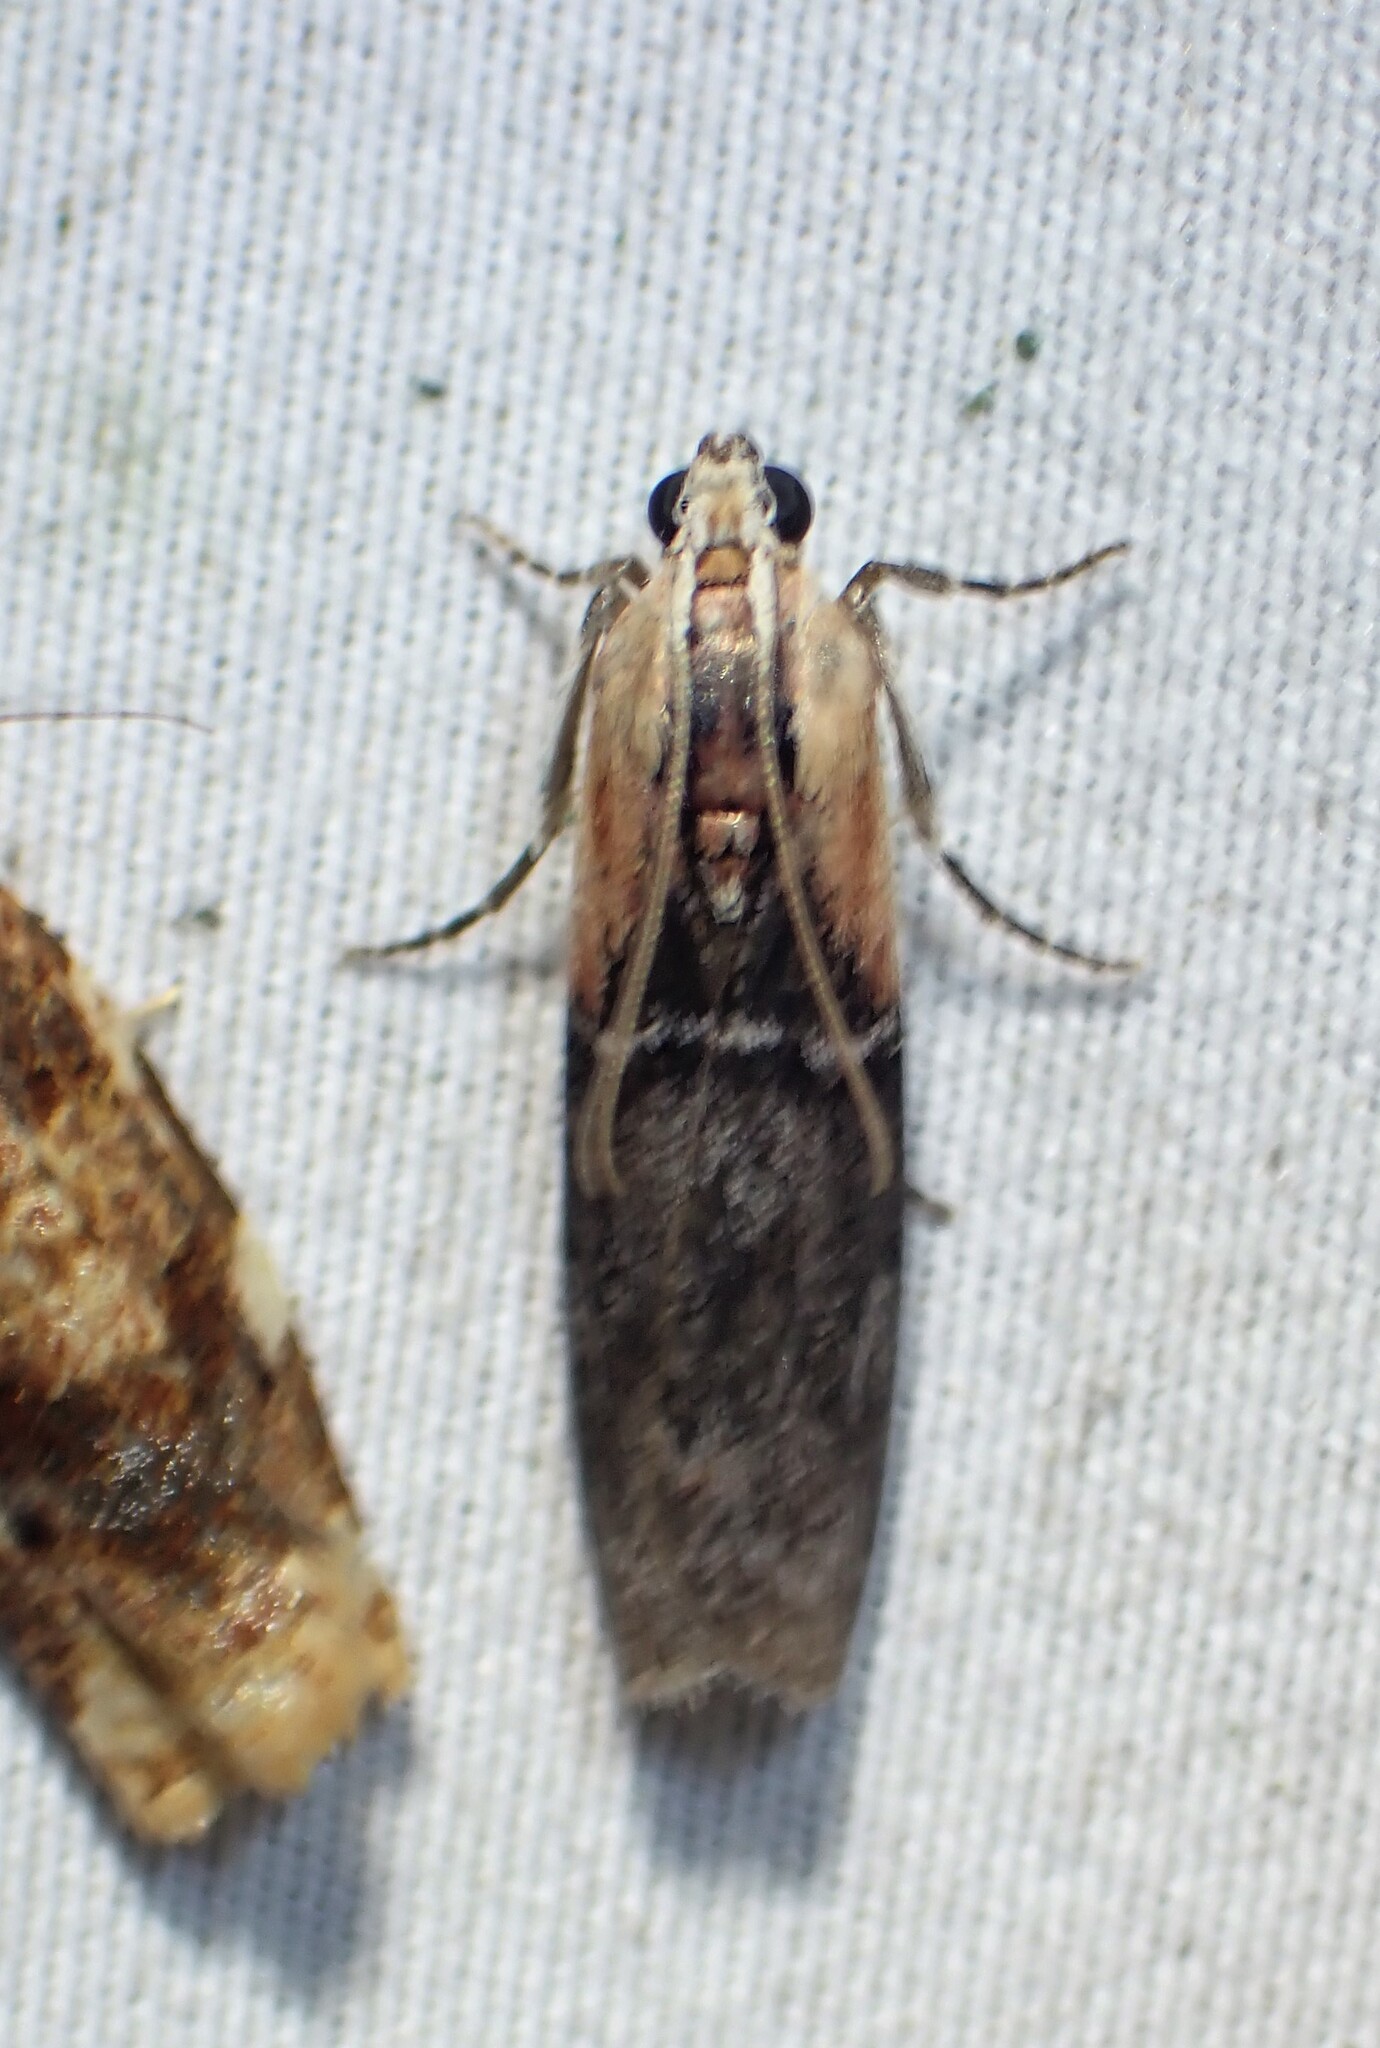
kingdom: Animalia
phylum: Arthropoda
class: Insecta
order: Lepidoptera
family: Pyralidae
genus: Sciota
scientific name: Sciota basilaris
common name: Yellow-shouldered leafroller
